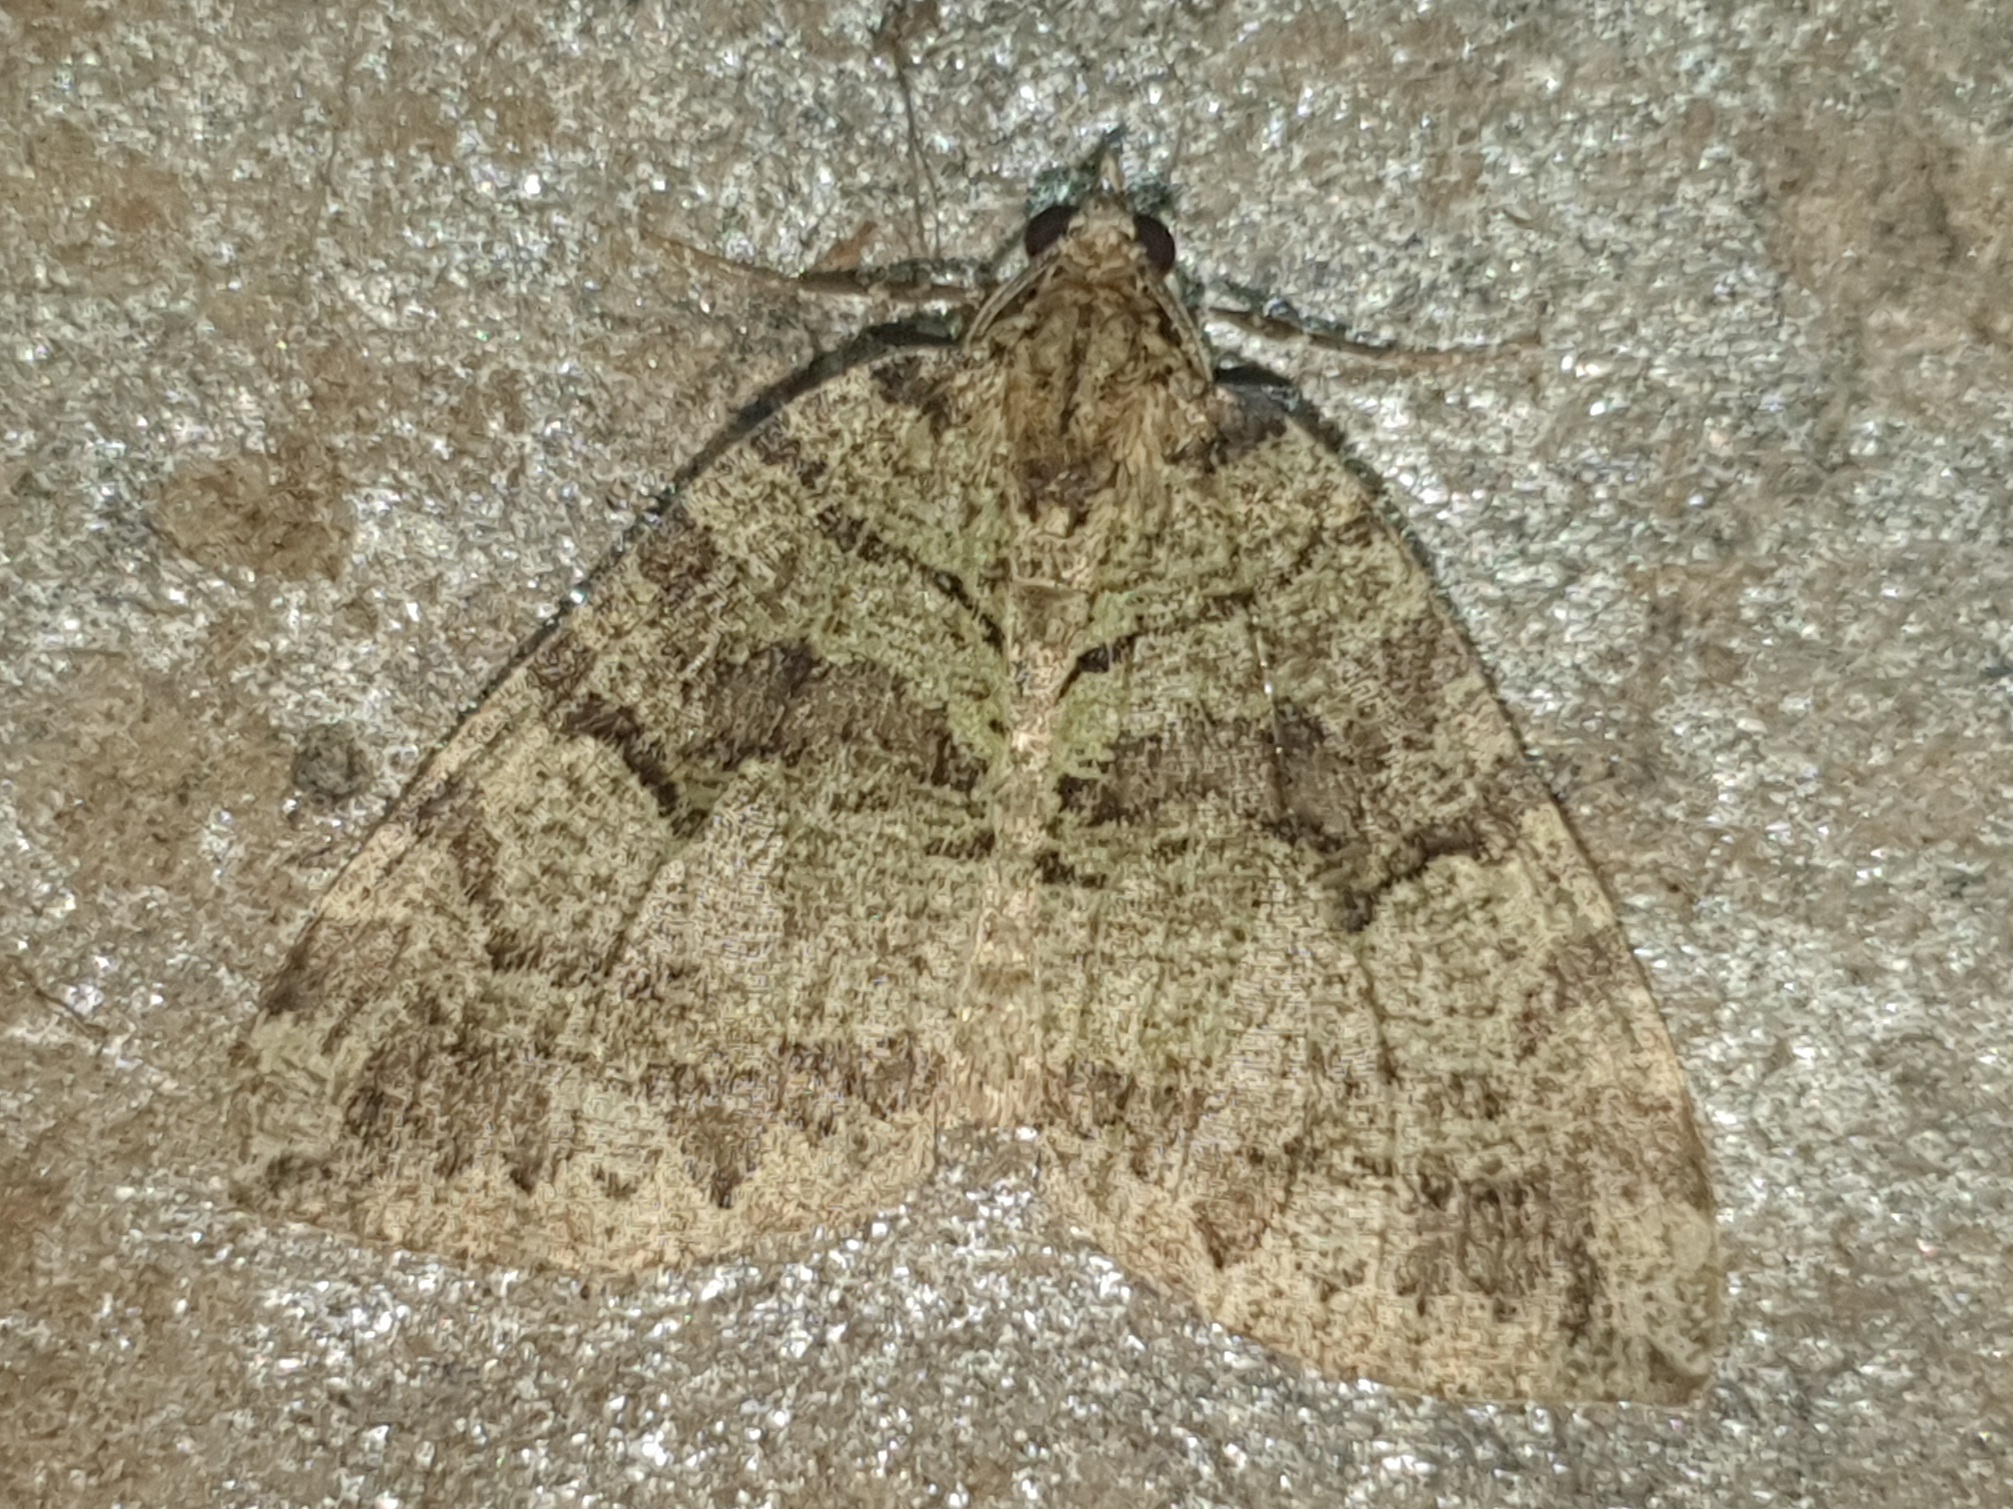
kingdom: Animalia
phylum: Arthropoda
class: Insecta
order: Lepidoptera
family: Geometridae
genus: Hydriomena
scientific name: Hydriomena furcata
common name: July highflyer
